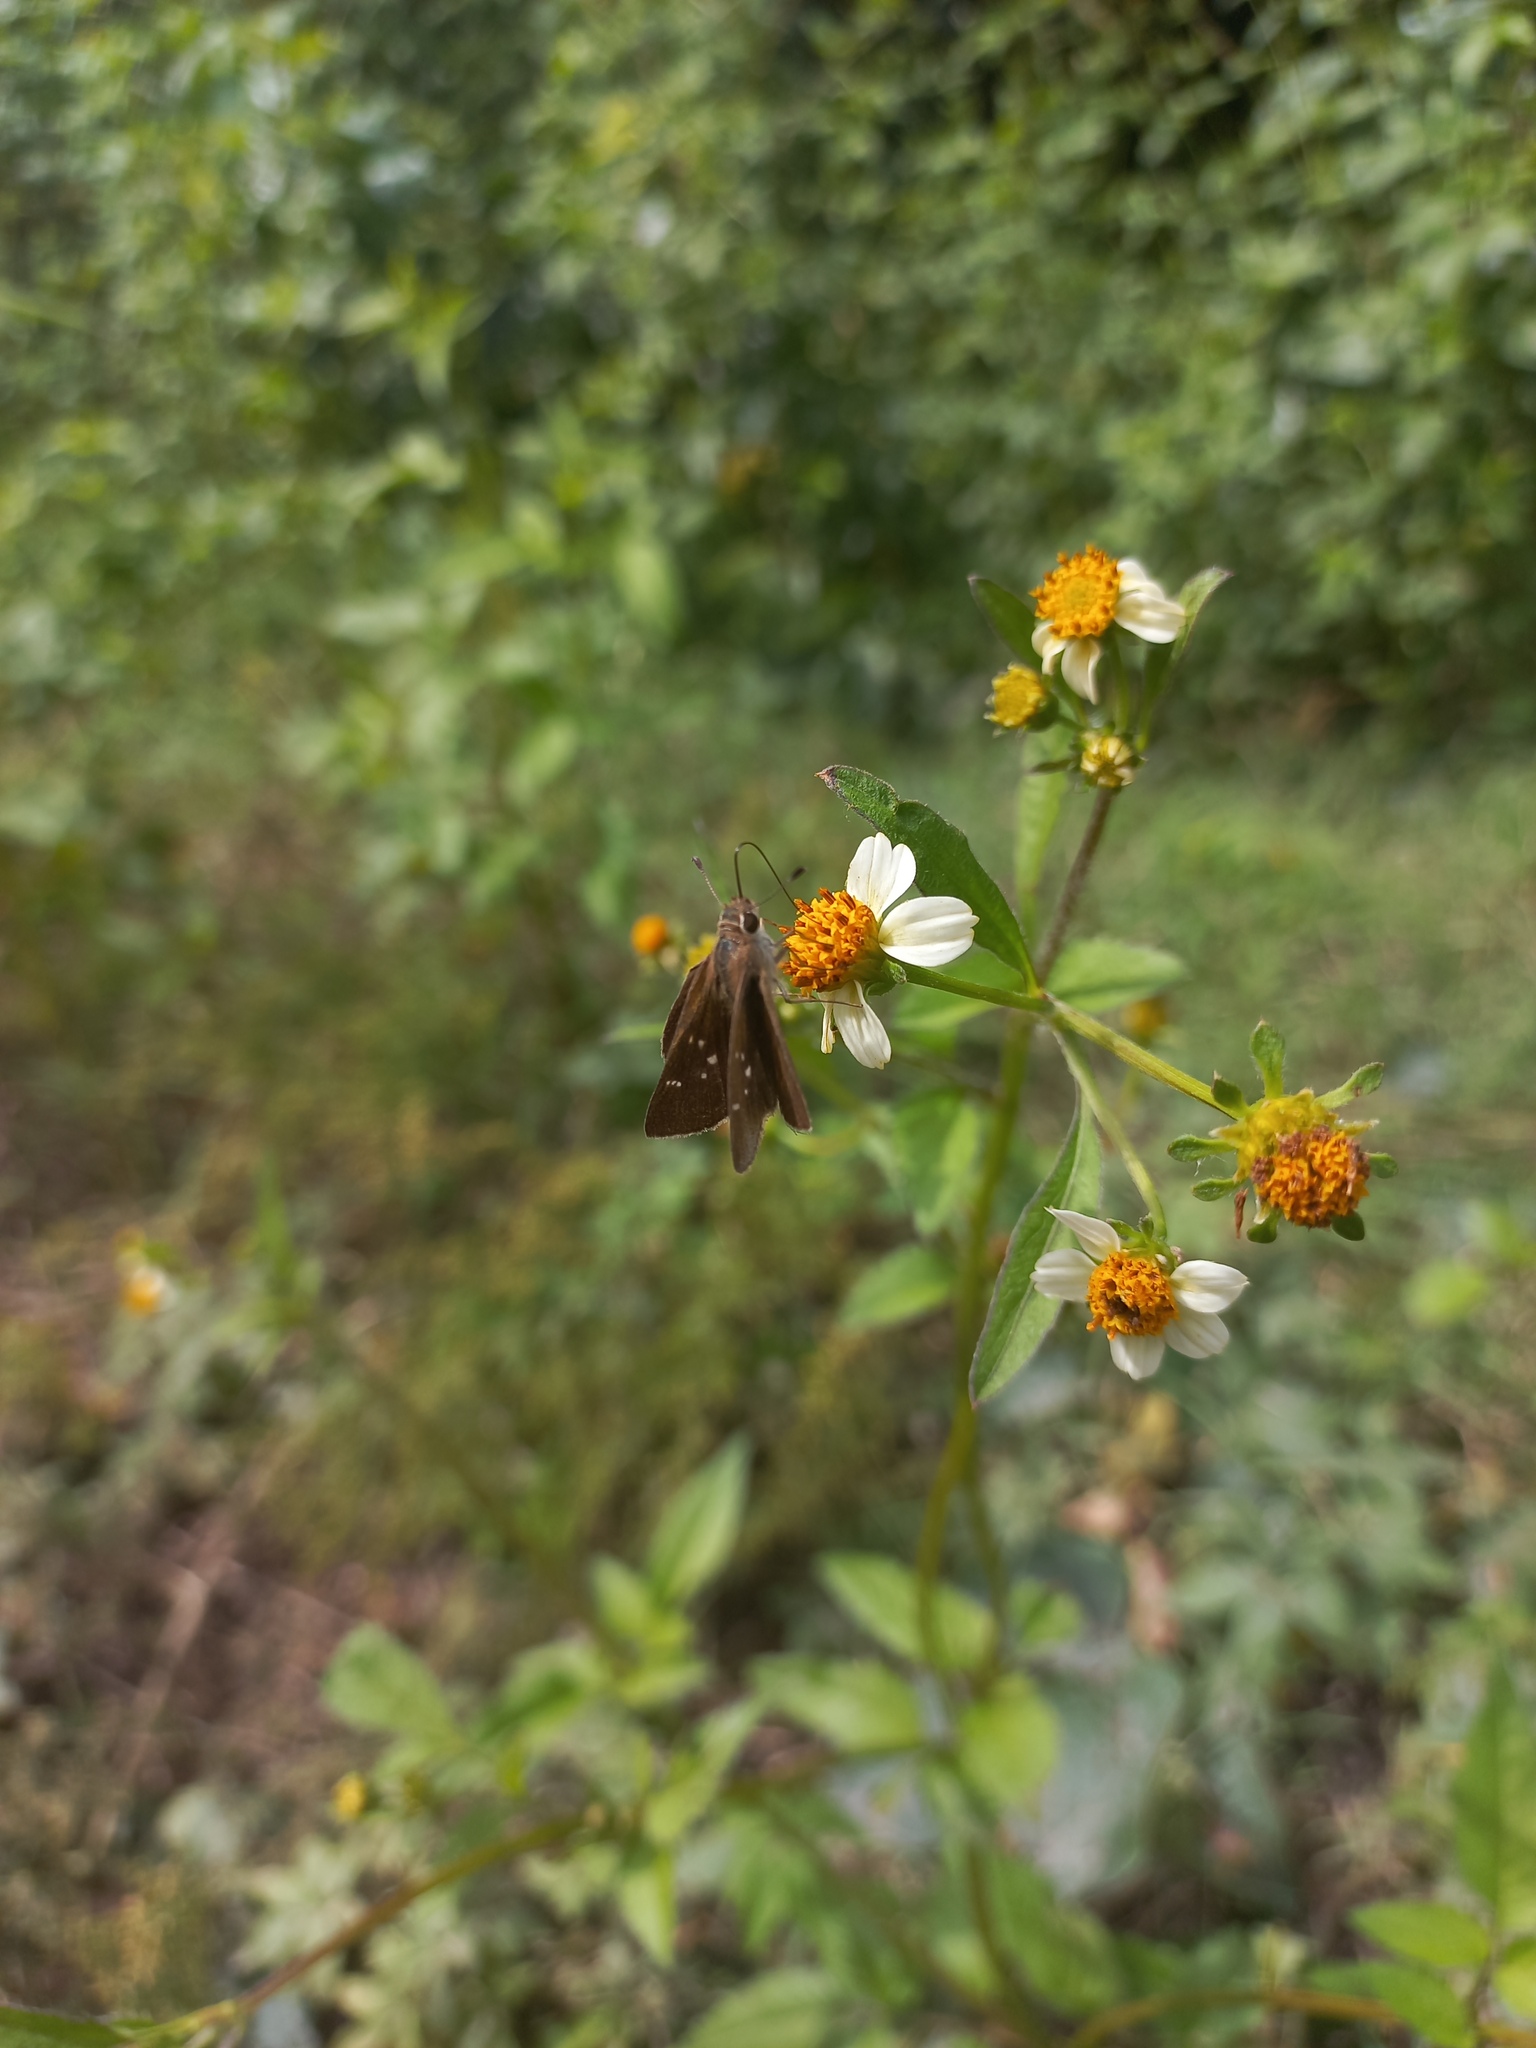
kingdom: Animalia
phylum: Arthropoda
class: Insecta
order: Lepidoptera
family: Hesperiidae
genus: Lerodea
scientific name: Lerodea eufala
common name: Eufala skipper
